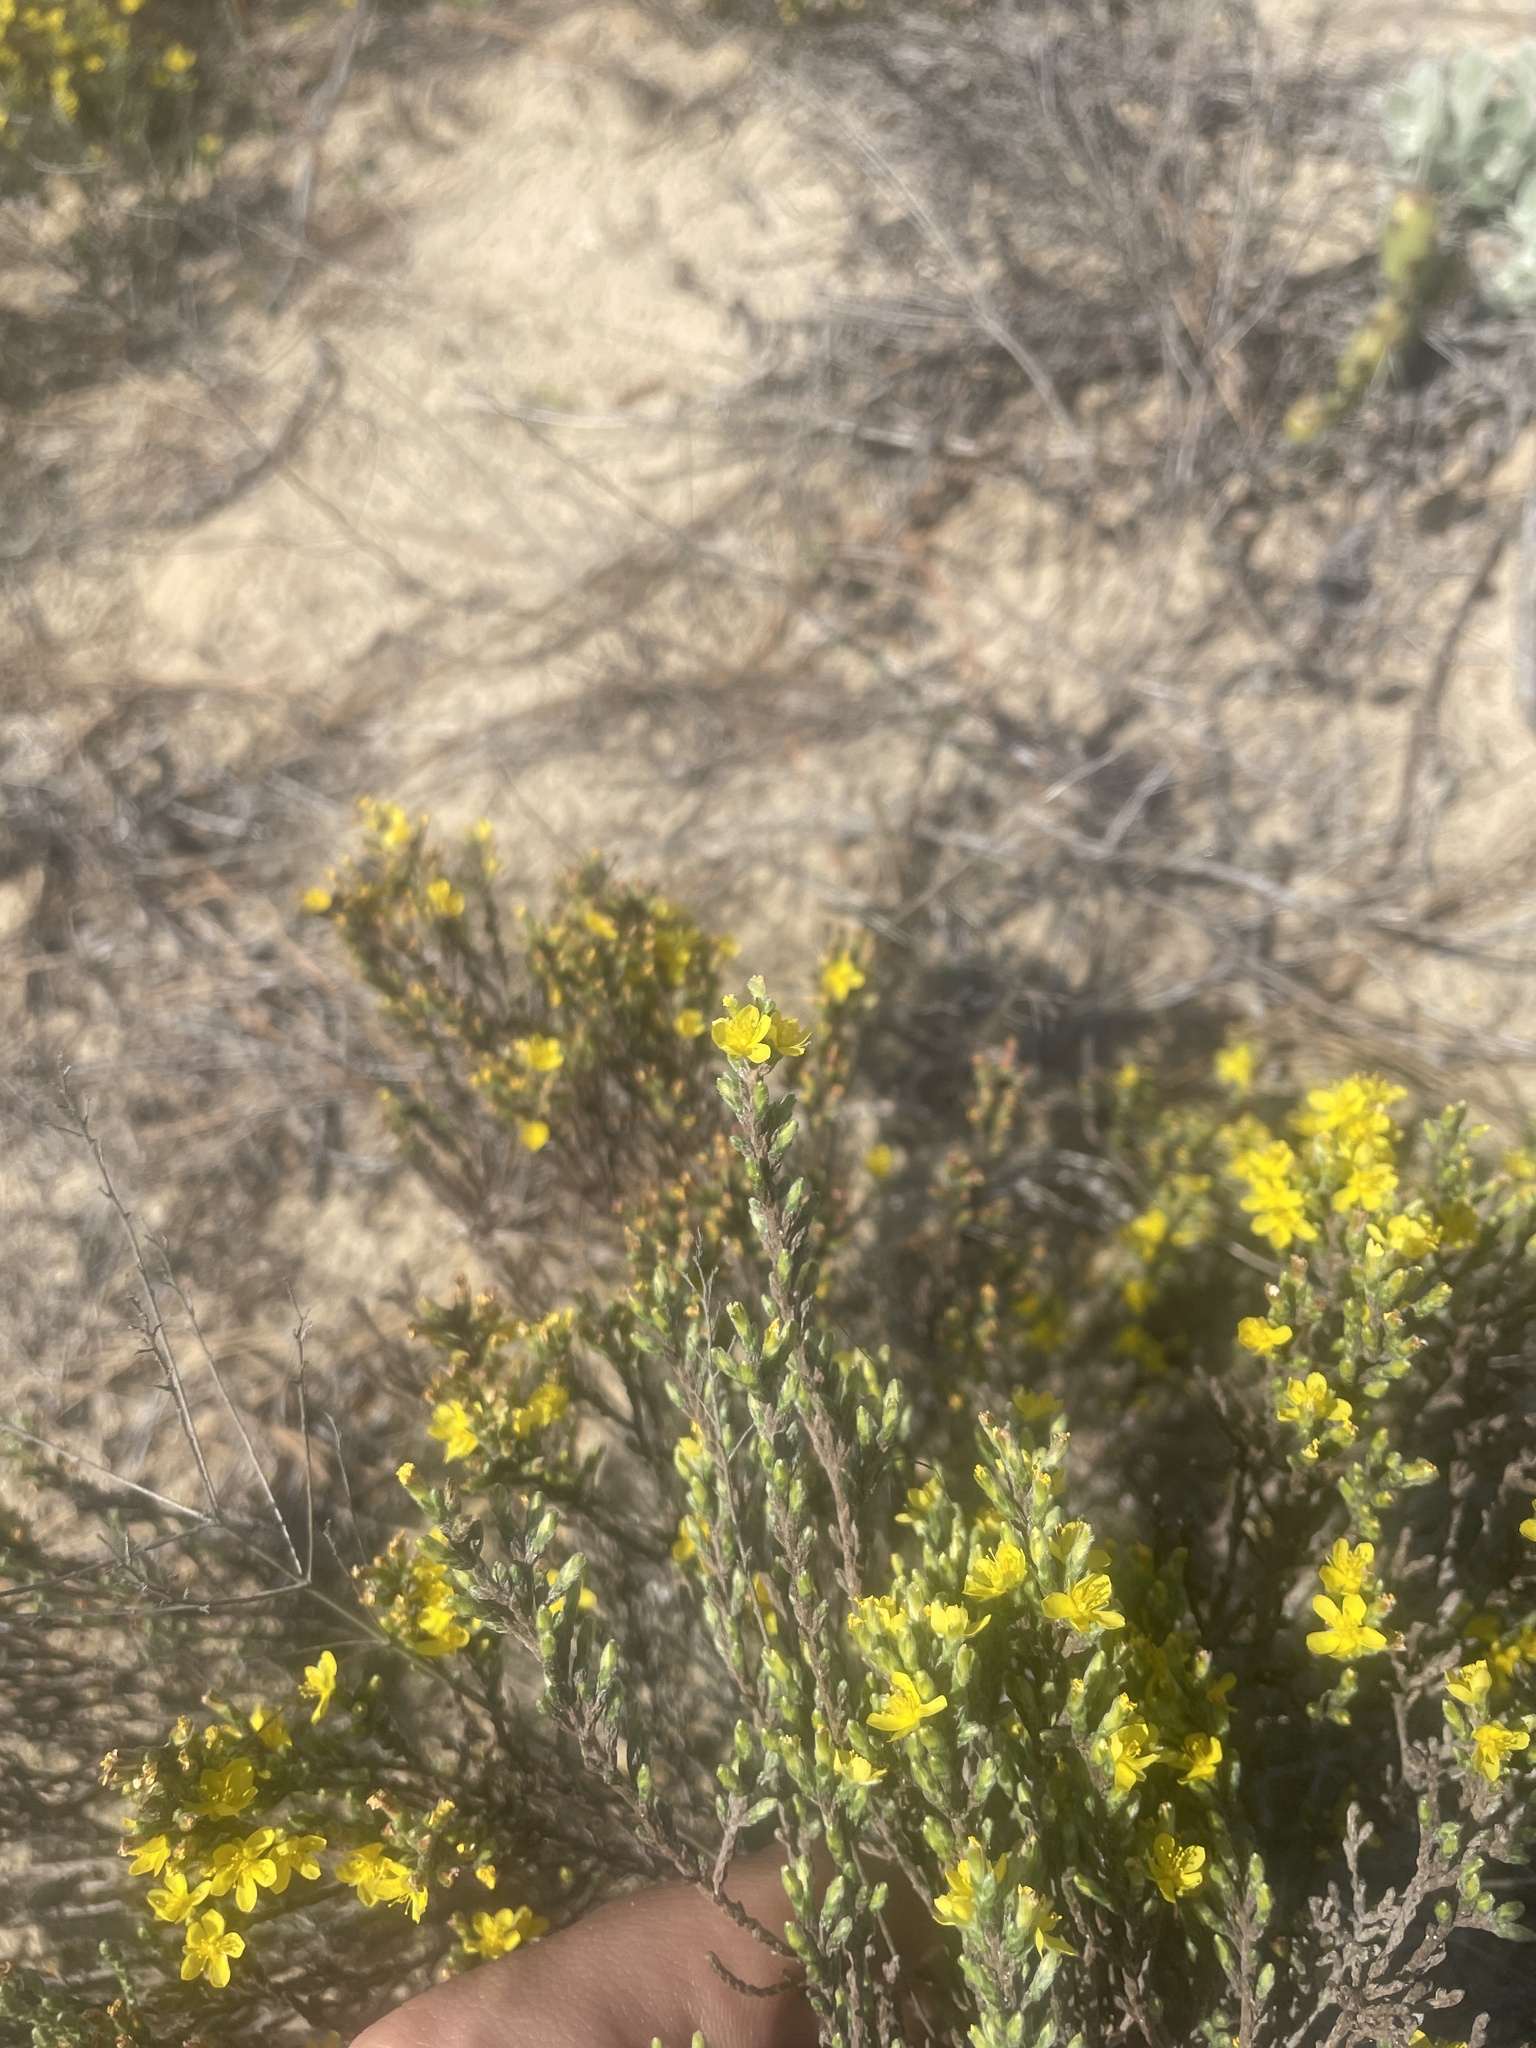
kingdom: Plantae
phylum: Tracheophyta
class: Magnoliopsida
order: Malvales
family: Cistaceae
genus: Hudsonia
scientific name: Hudsonia tomentosa
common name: Beach-heath
